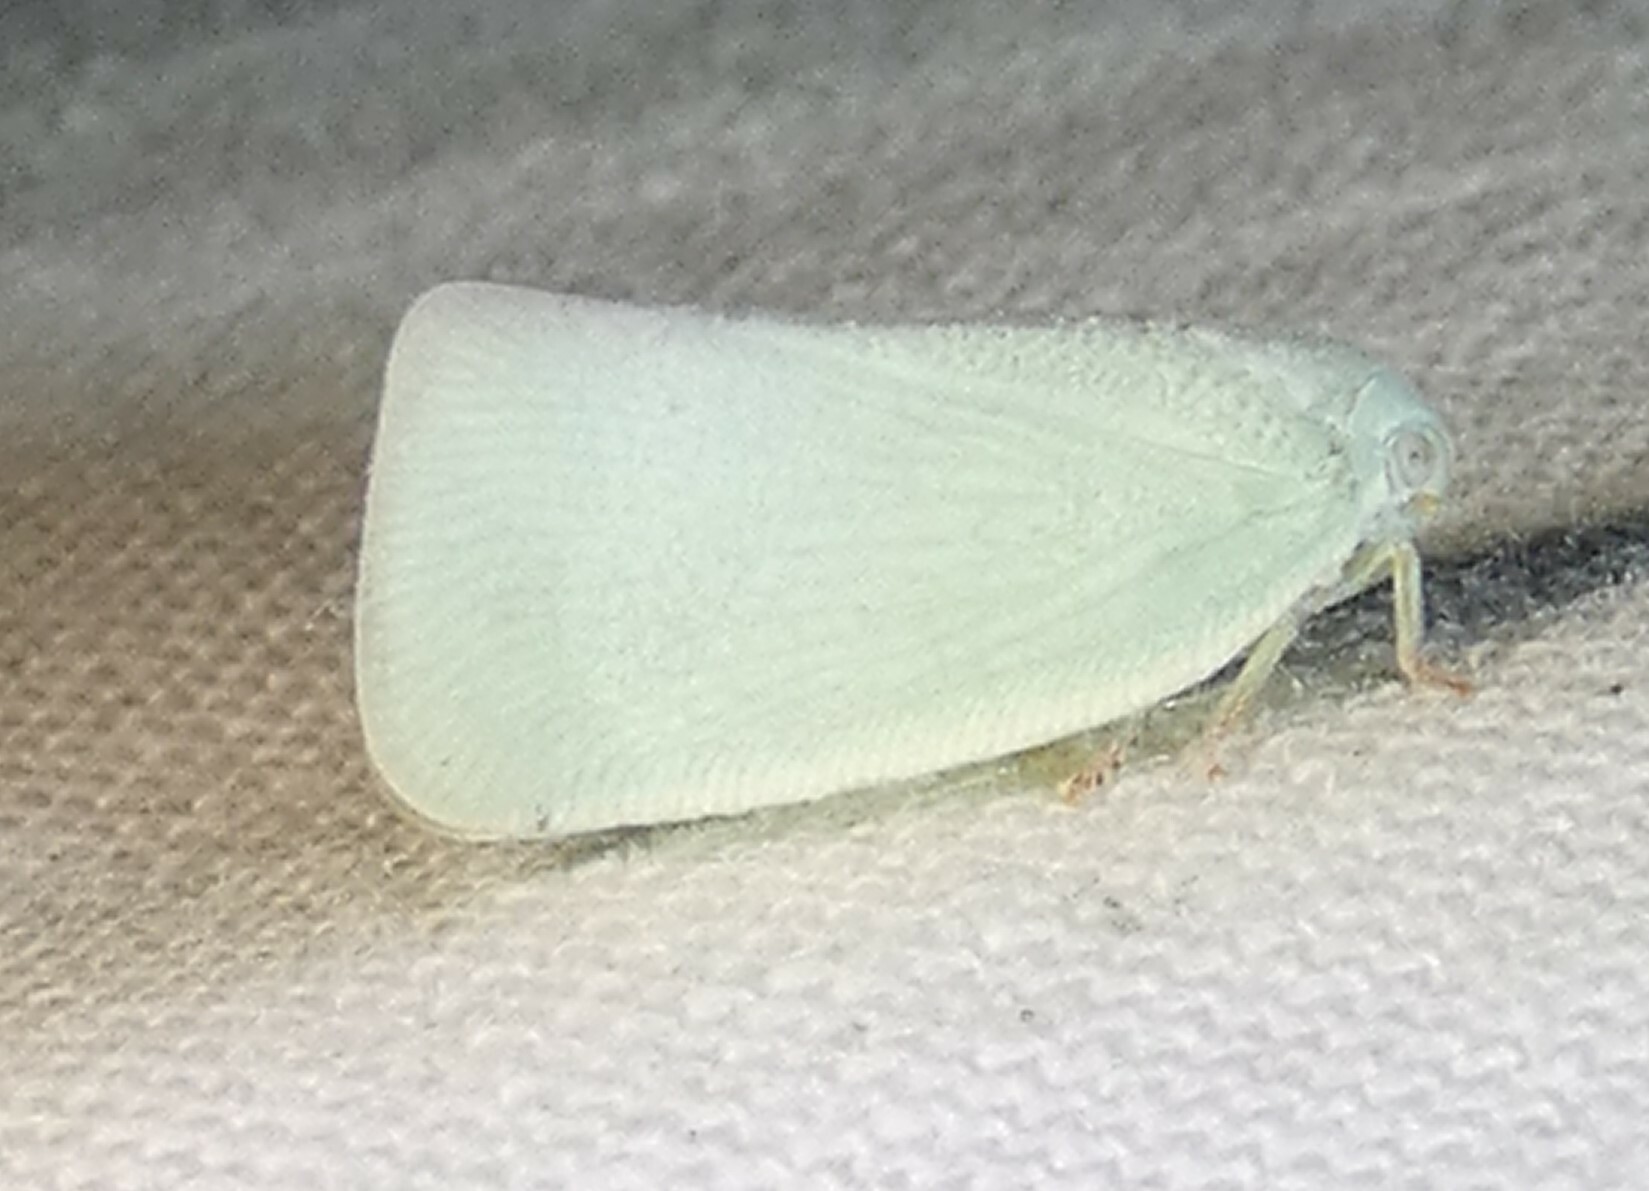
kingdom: Animalia
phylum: Arthropoda
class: Insecta
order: Hemiptera
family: Flatidae
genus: Flatormenis
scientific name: Flatormenis proxima
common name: Northern flatid planthopper
